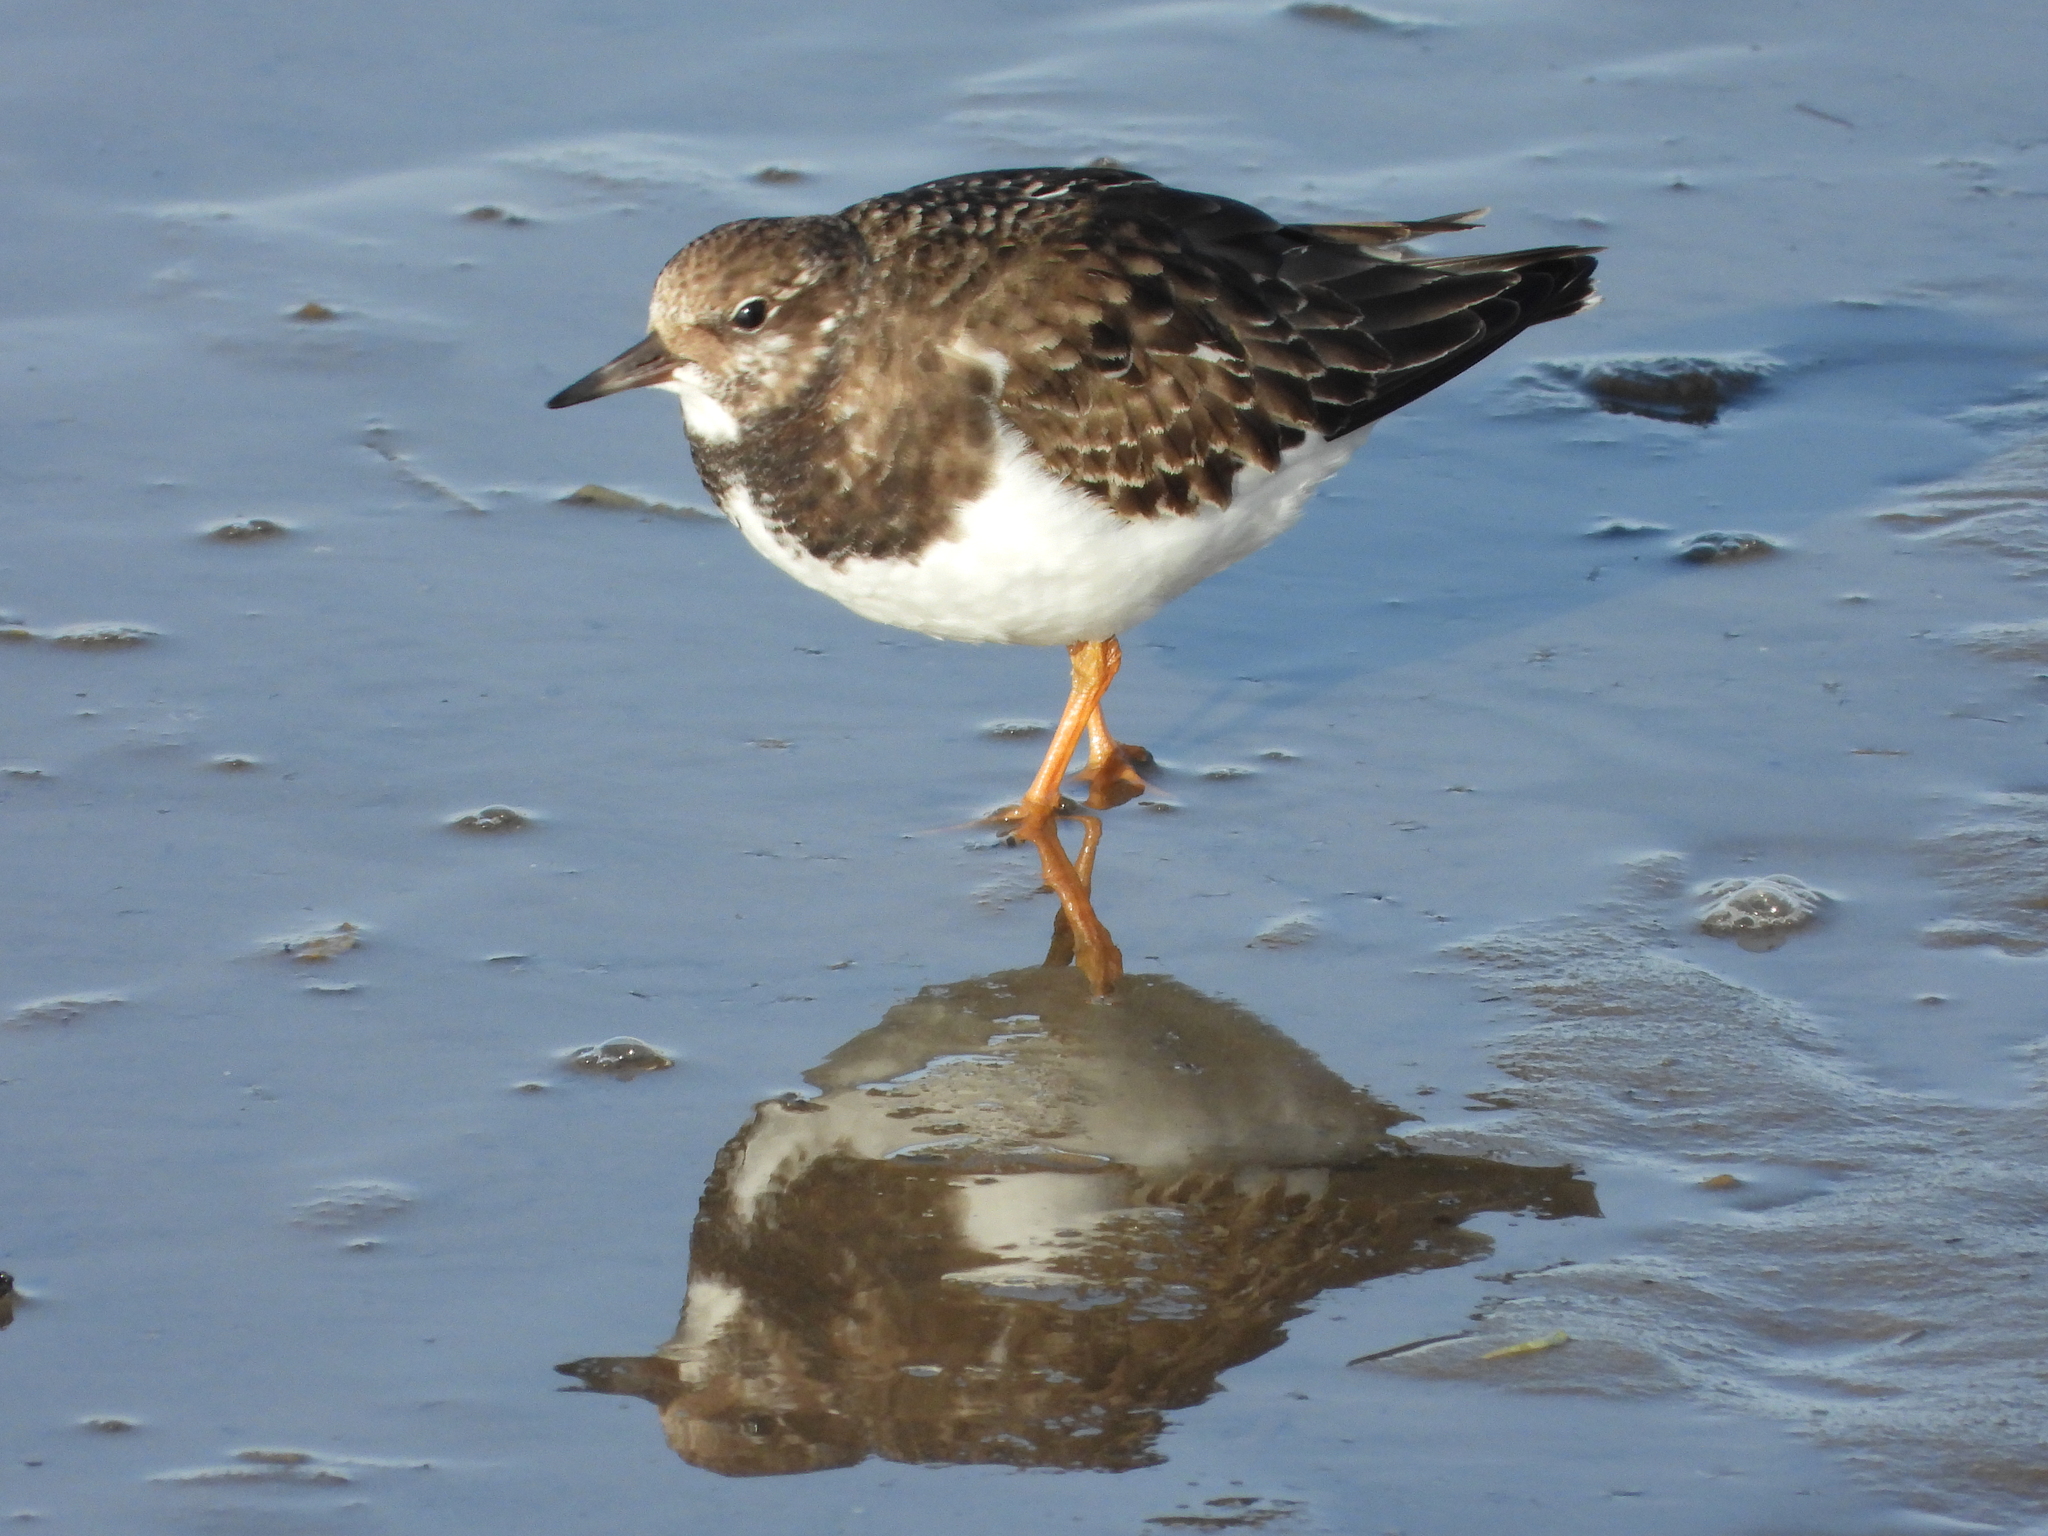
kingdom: Animalia
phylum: Chordata
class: Aves
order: Charadriiformes
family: Scolopacidae
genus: Arenaria
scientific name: Arenaria interpres
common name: Ruddy turnstone
